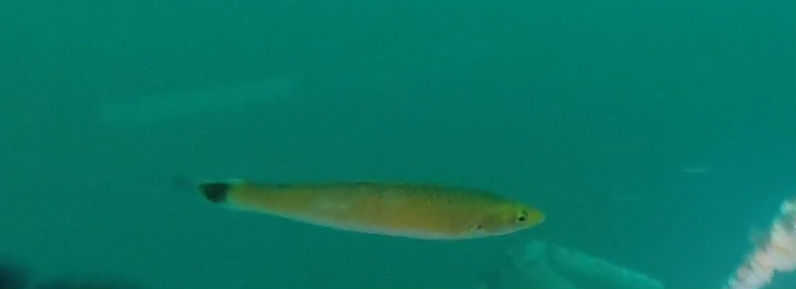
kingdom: Animalia
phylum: Chordata
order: Perciformes
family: Labridae
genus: Oxyjulis
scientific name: Oxyjulis californica
